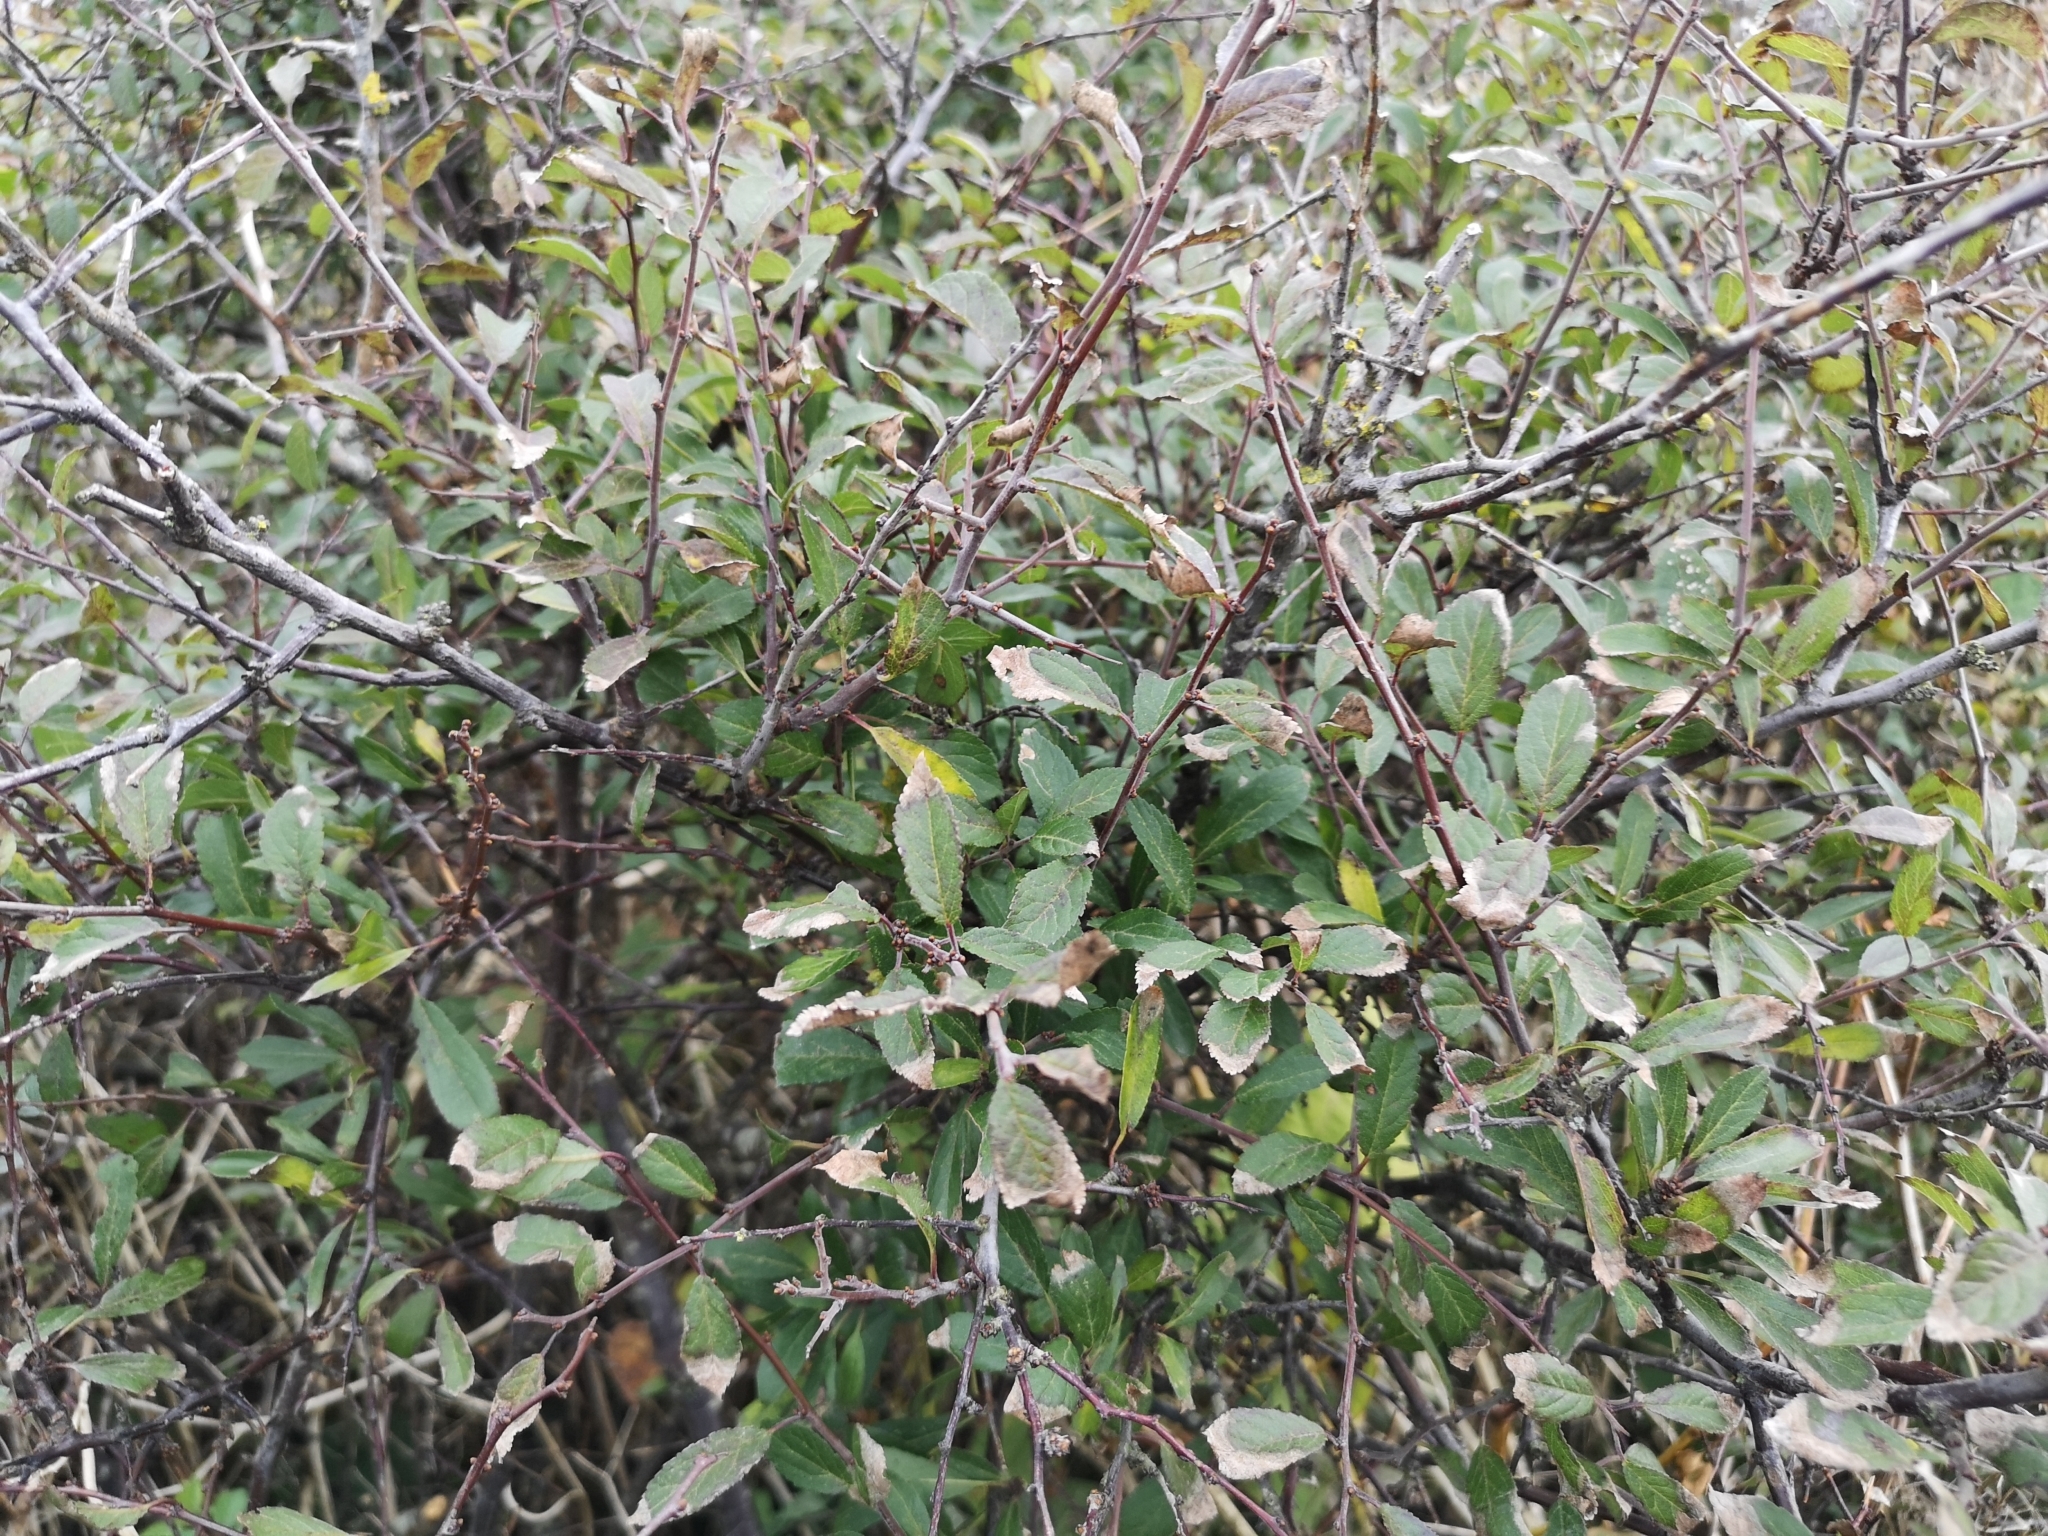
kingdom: Plantae
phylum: Tracheophyta
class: Magnoliopsida
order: Rosales
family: Rosaceae
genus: Prunus
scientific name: Prunus spinosa
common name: Blackthorn
